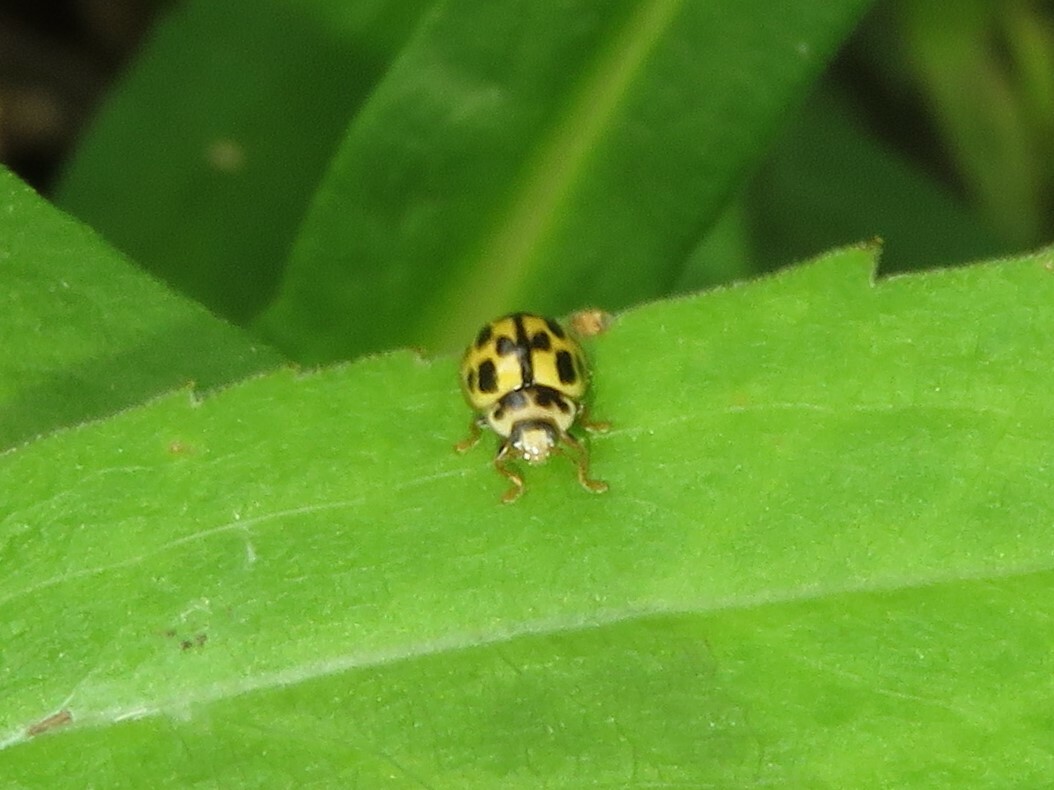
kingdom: Animalia
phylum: Arthropoda
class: Insecta
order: Coleoptera
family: Coccinellidae
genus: Propylaea
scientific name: Propylaea quatuordecimpunctata
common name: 14-spotted ladybird beetle
